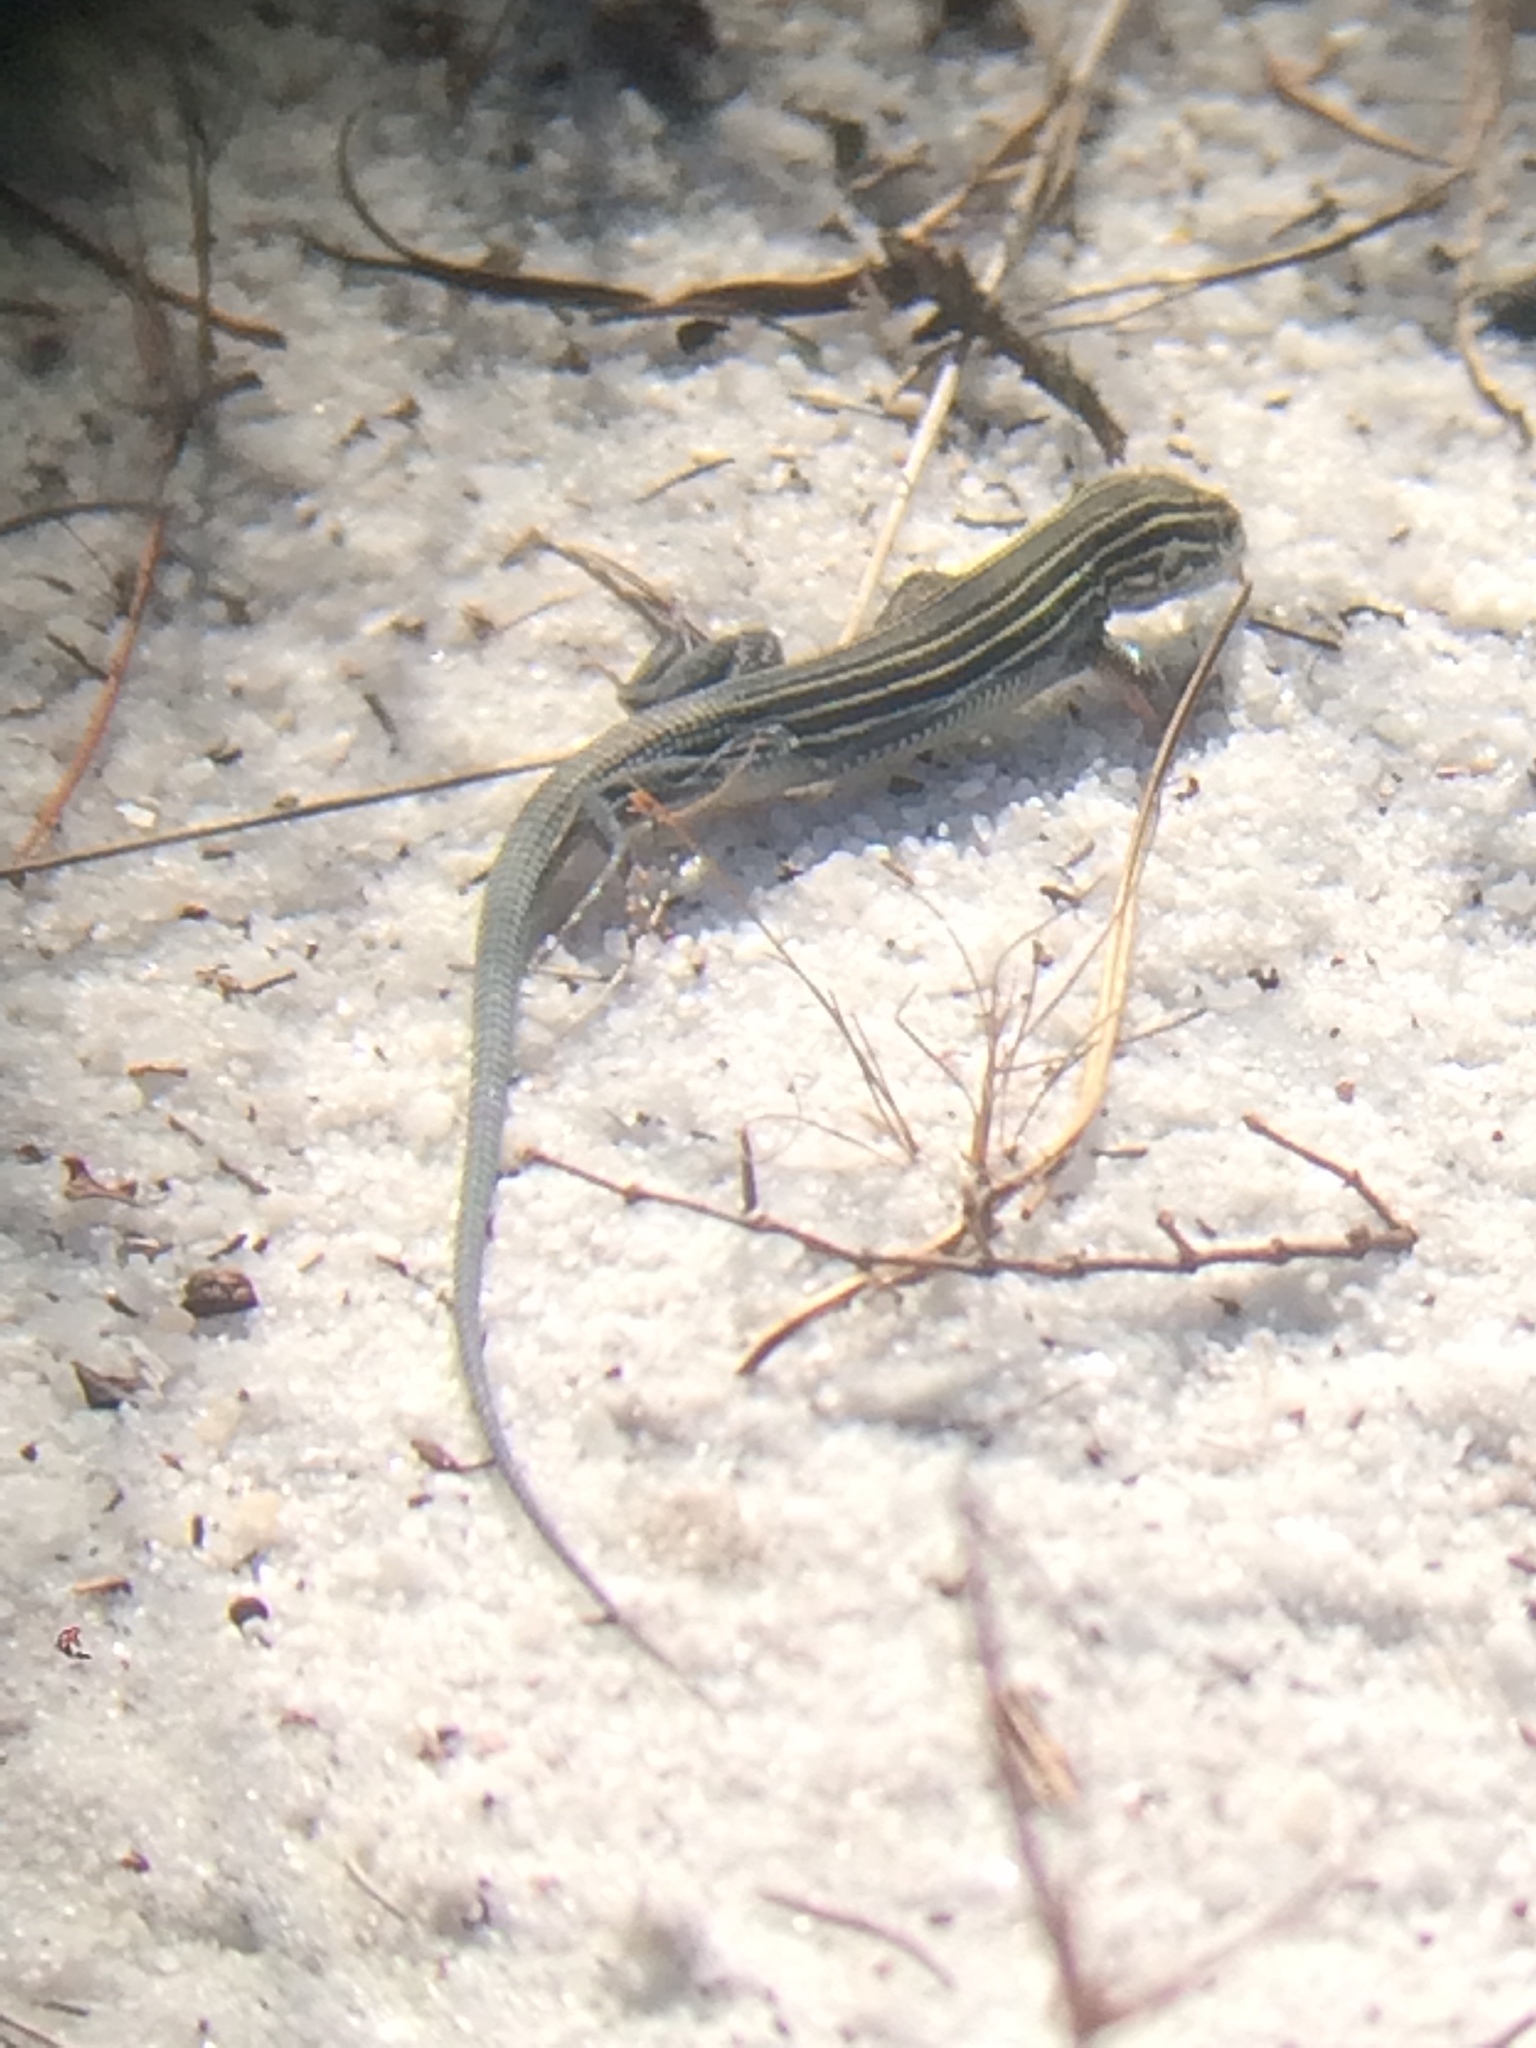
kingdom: Animalia
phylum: Chordata
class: Squamata
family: Teiidae
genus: Aspidoscelis
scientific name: Aspidoscelis sexlineatus
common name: Six-lined racerunner
